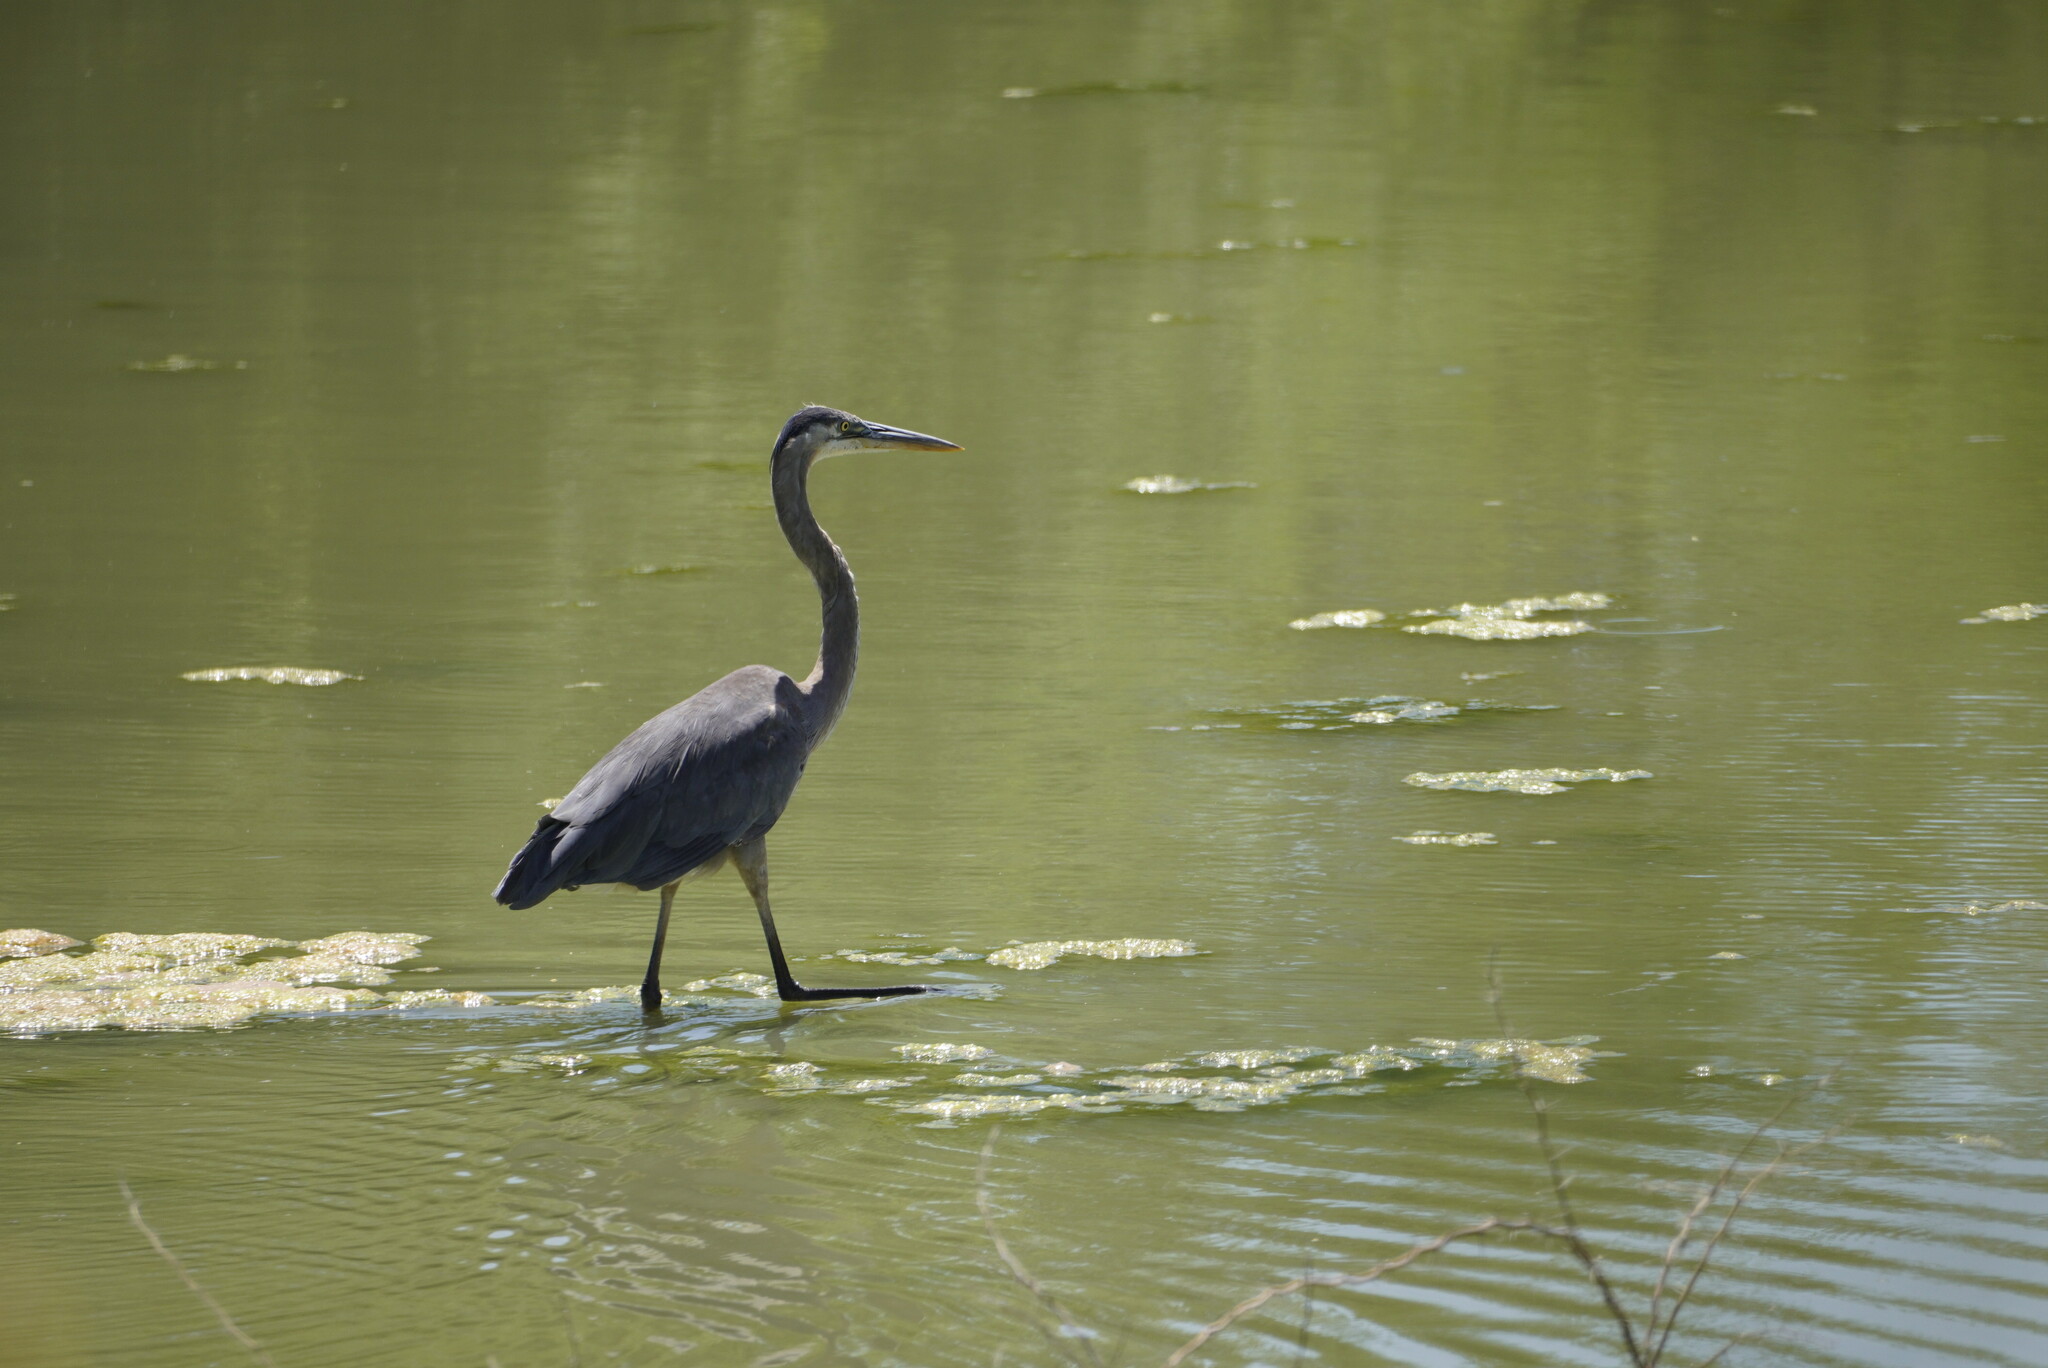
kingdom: Animalia
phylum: Chordata
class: Aves
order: Pelecaniformes
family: Ardeidae
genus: Ardea
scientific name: Ardea herodias
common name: Great blue heron
